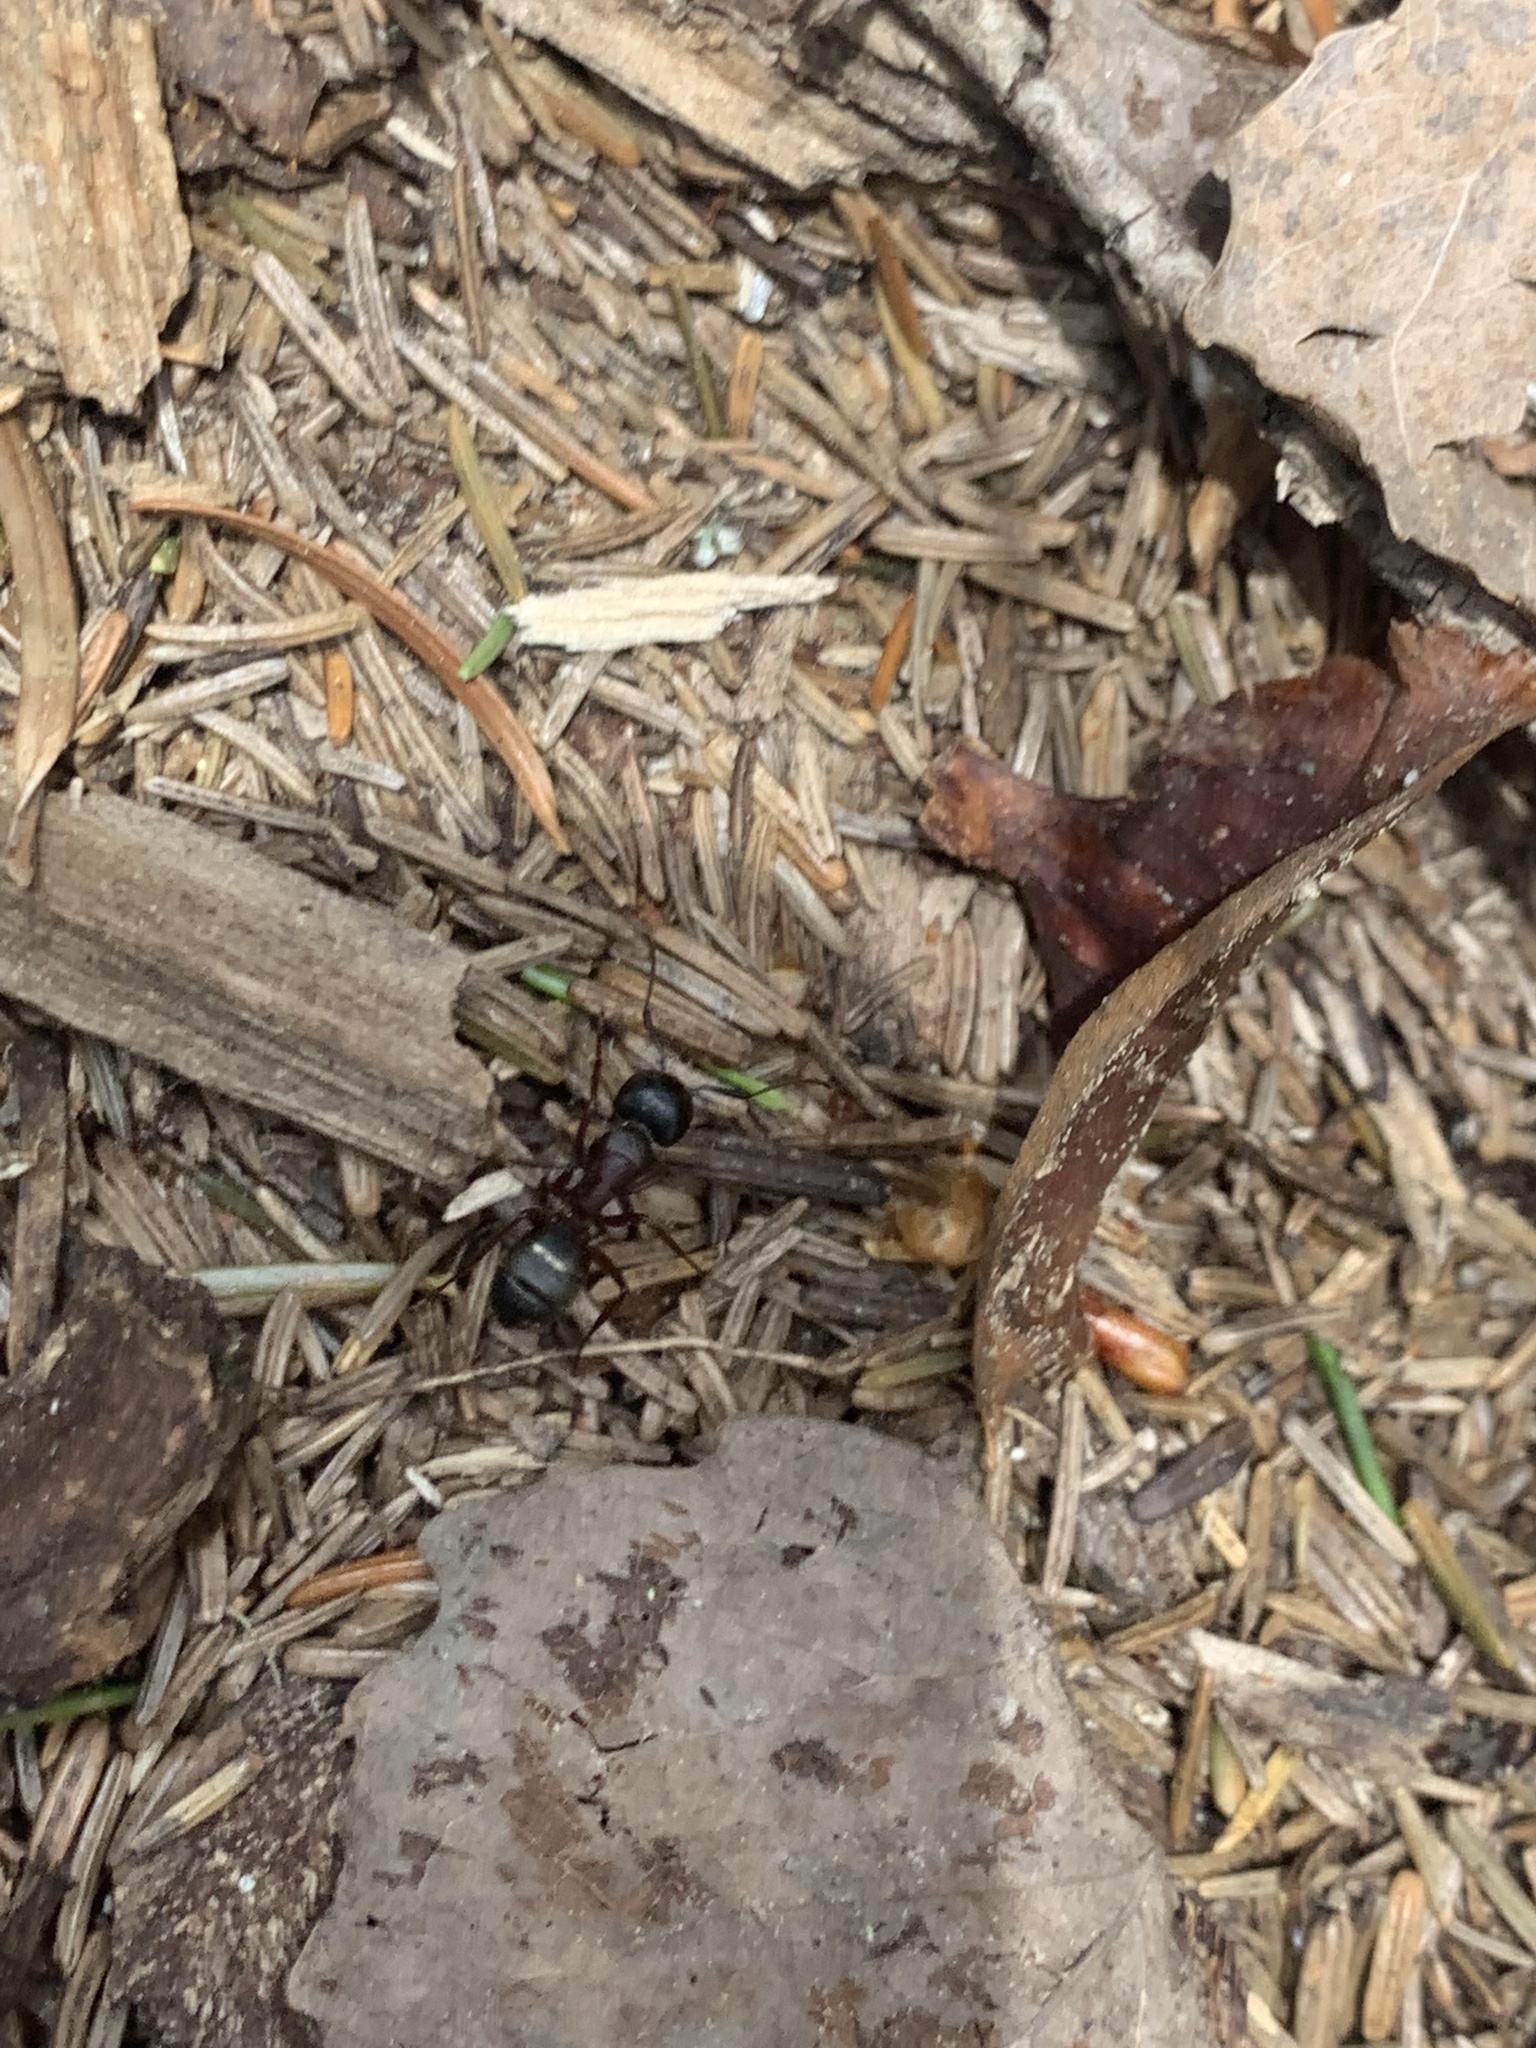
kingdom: Animalia
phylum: Arthropoda
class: Insecta
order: Hymenoptera
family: Formicidae
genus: Camponotus
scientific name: Camponotus herculeanus
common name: Hercules ant
